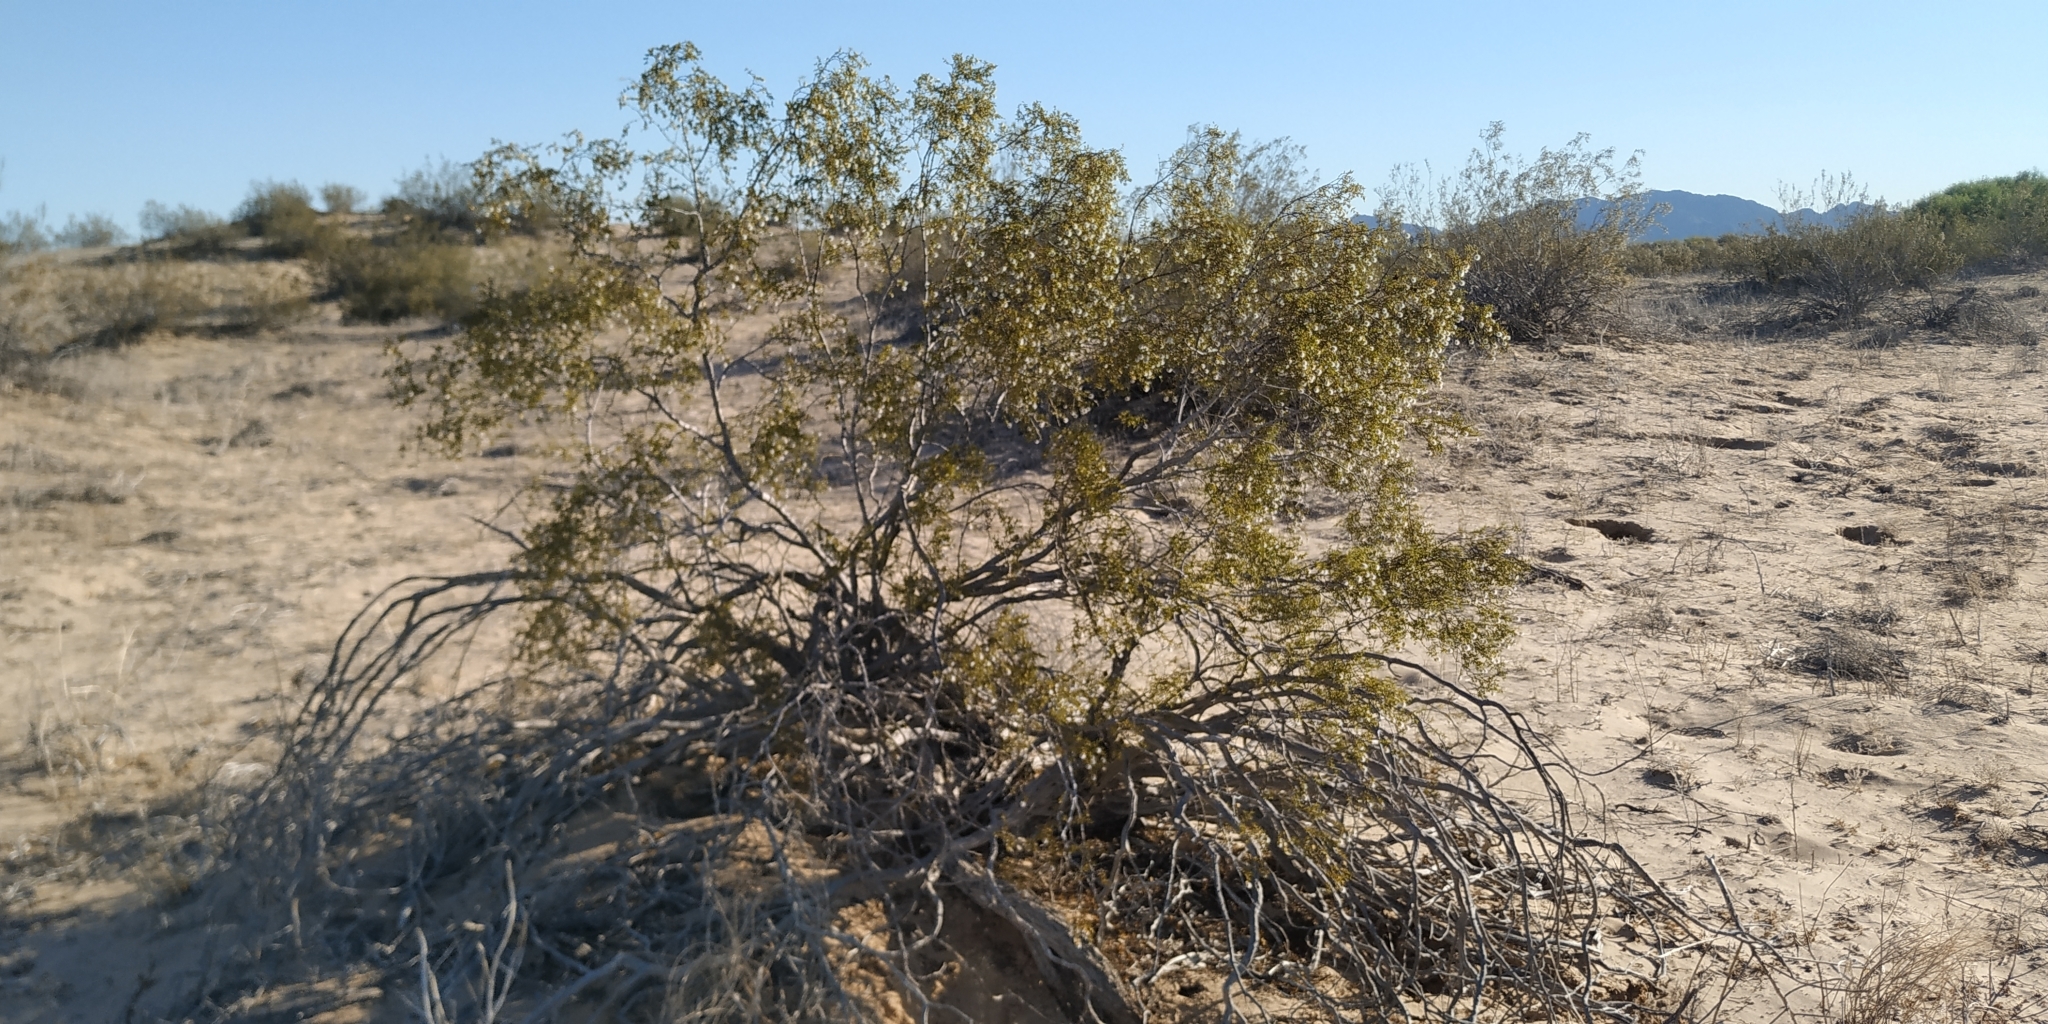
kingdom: Plantae
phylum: Tracheophyta
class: Magnoliopsida
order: Zygophyllales
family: Zygophyllaceae
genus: Larrea
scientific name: Larrea tridentata
